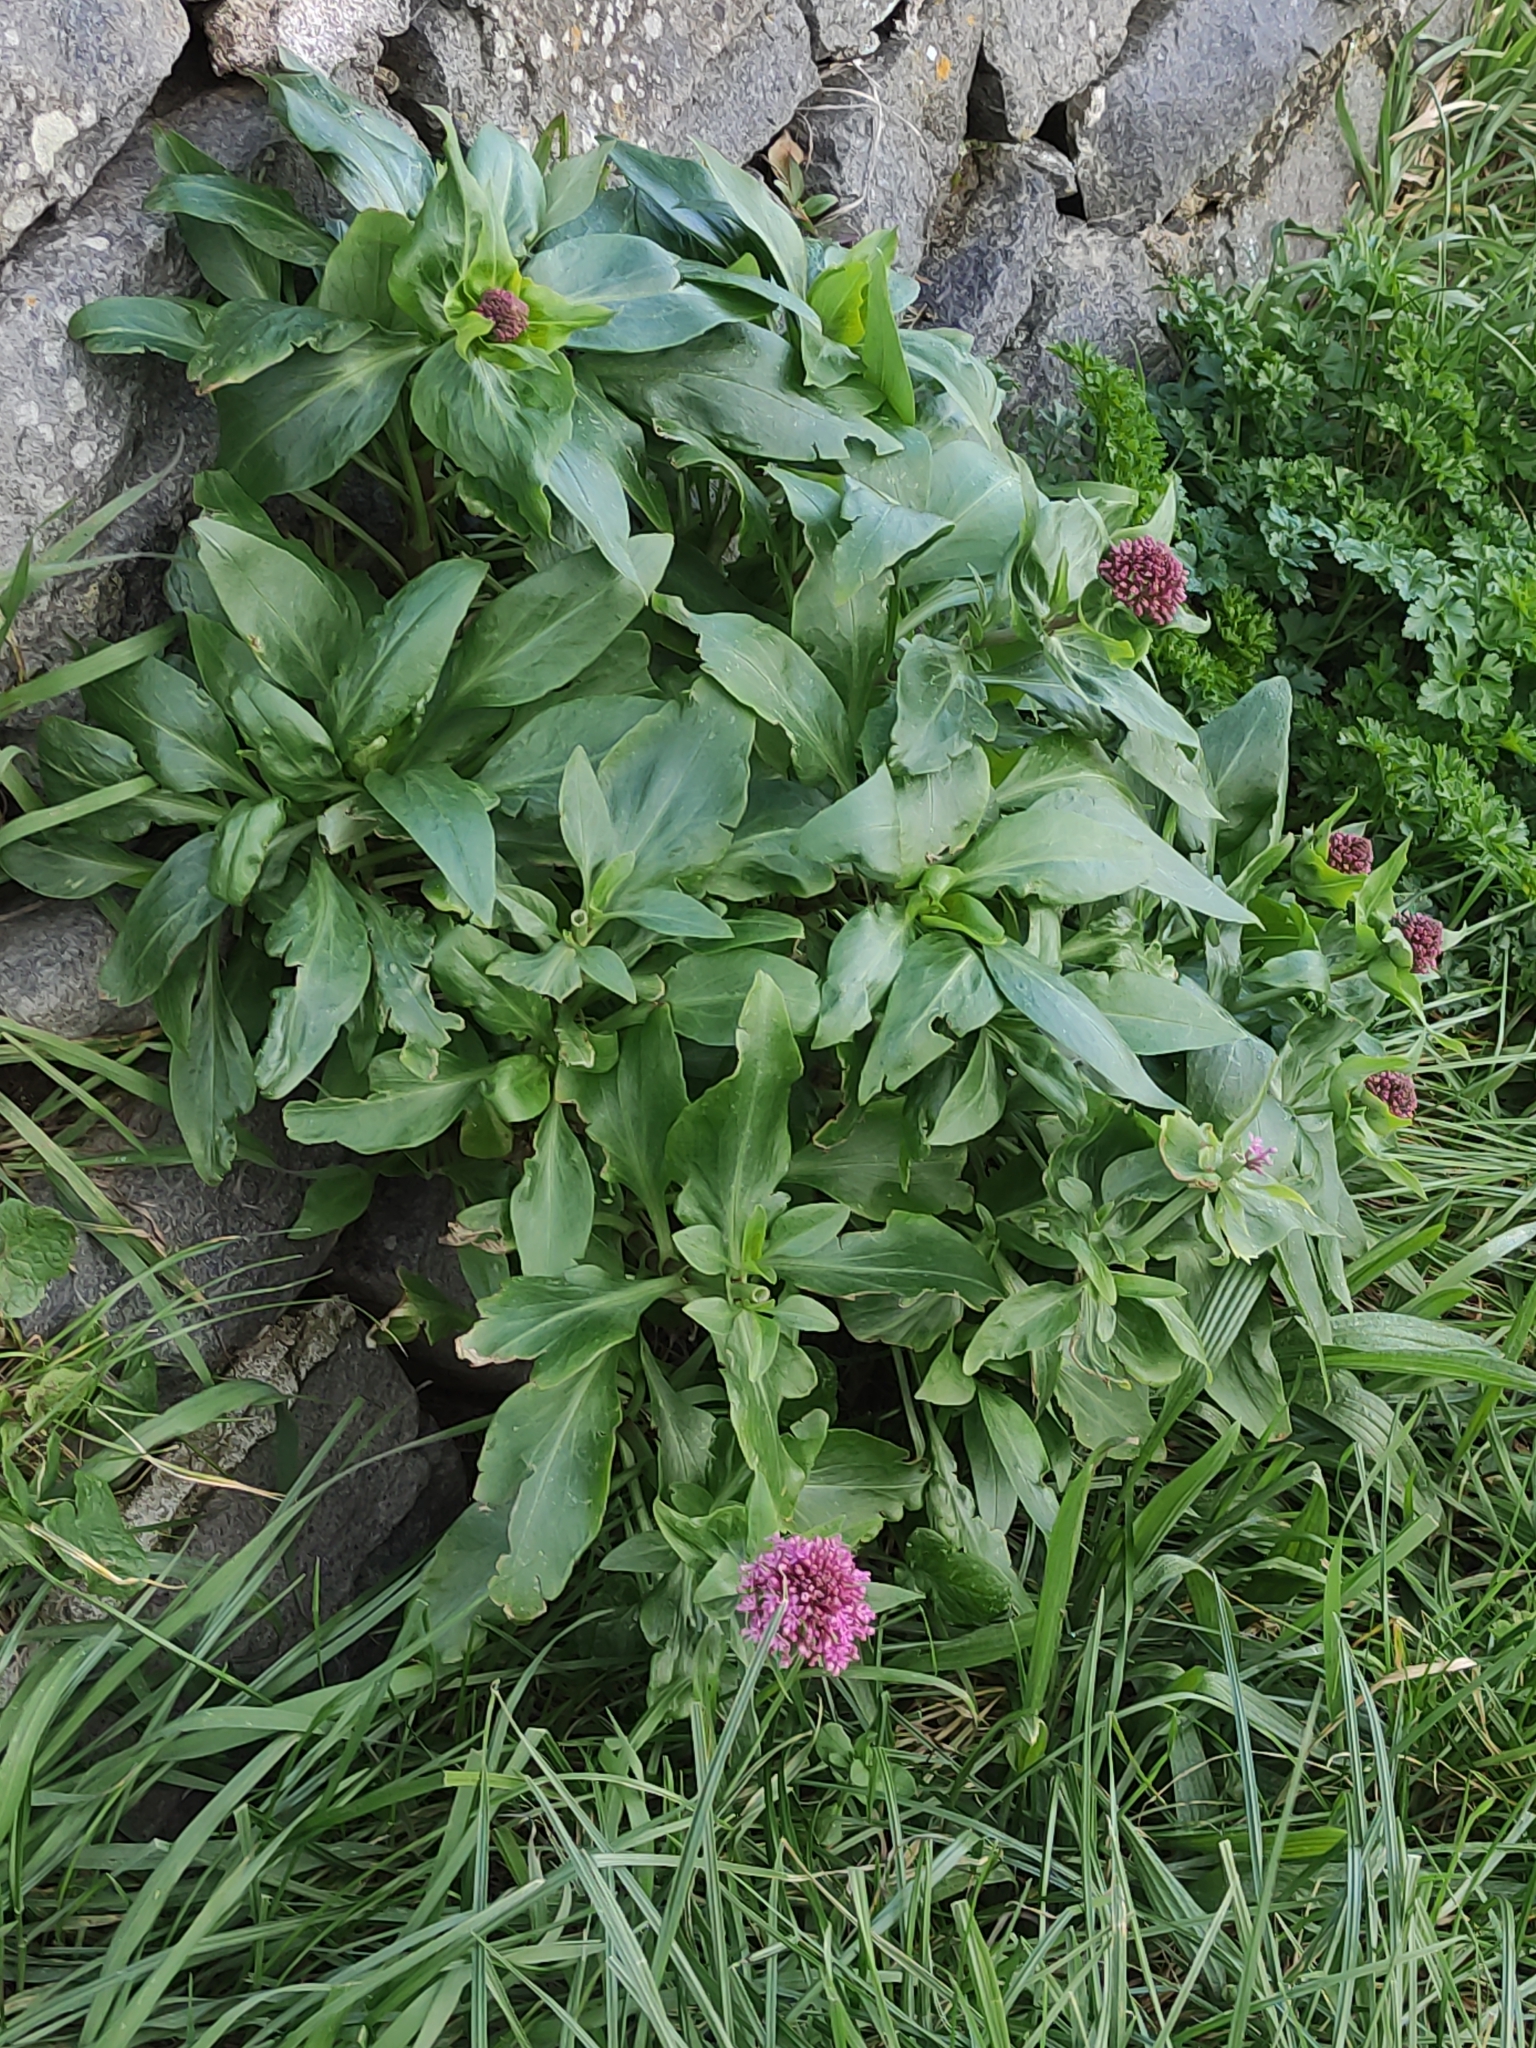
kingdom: Plantae
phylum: Tracheophyta
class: Magnoliopsida
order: Dipsacales
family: Caprifoliaceae
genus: Centranthus
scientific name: Centranthus ruber
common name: Red valerian
